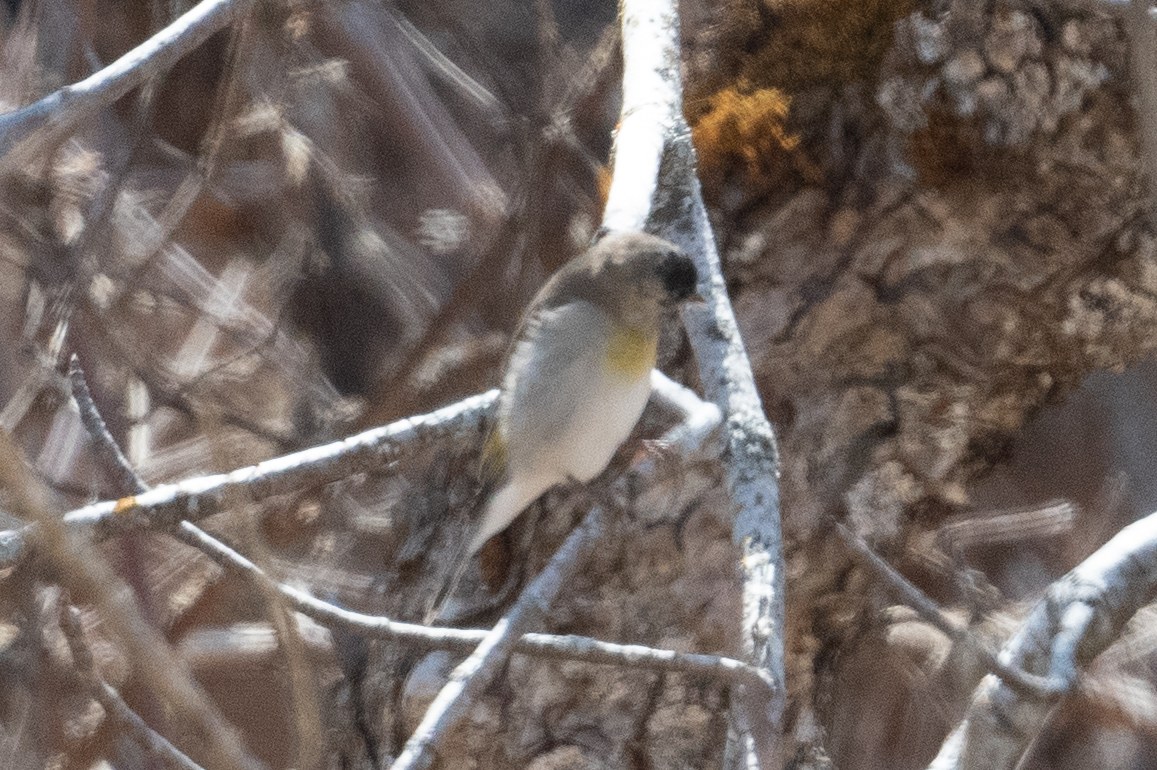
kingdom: Animalia
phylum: Chordata
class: Aves
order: Passeriformes
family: Fringillidae
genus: Spinus
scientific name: Spinus lawrencei
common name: Lawrence's goldfinch
